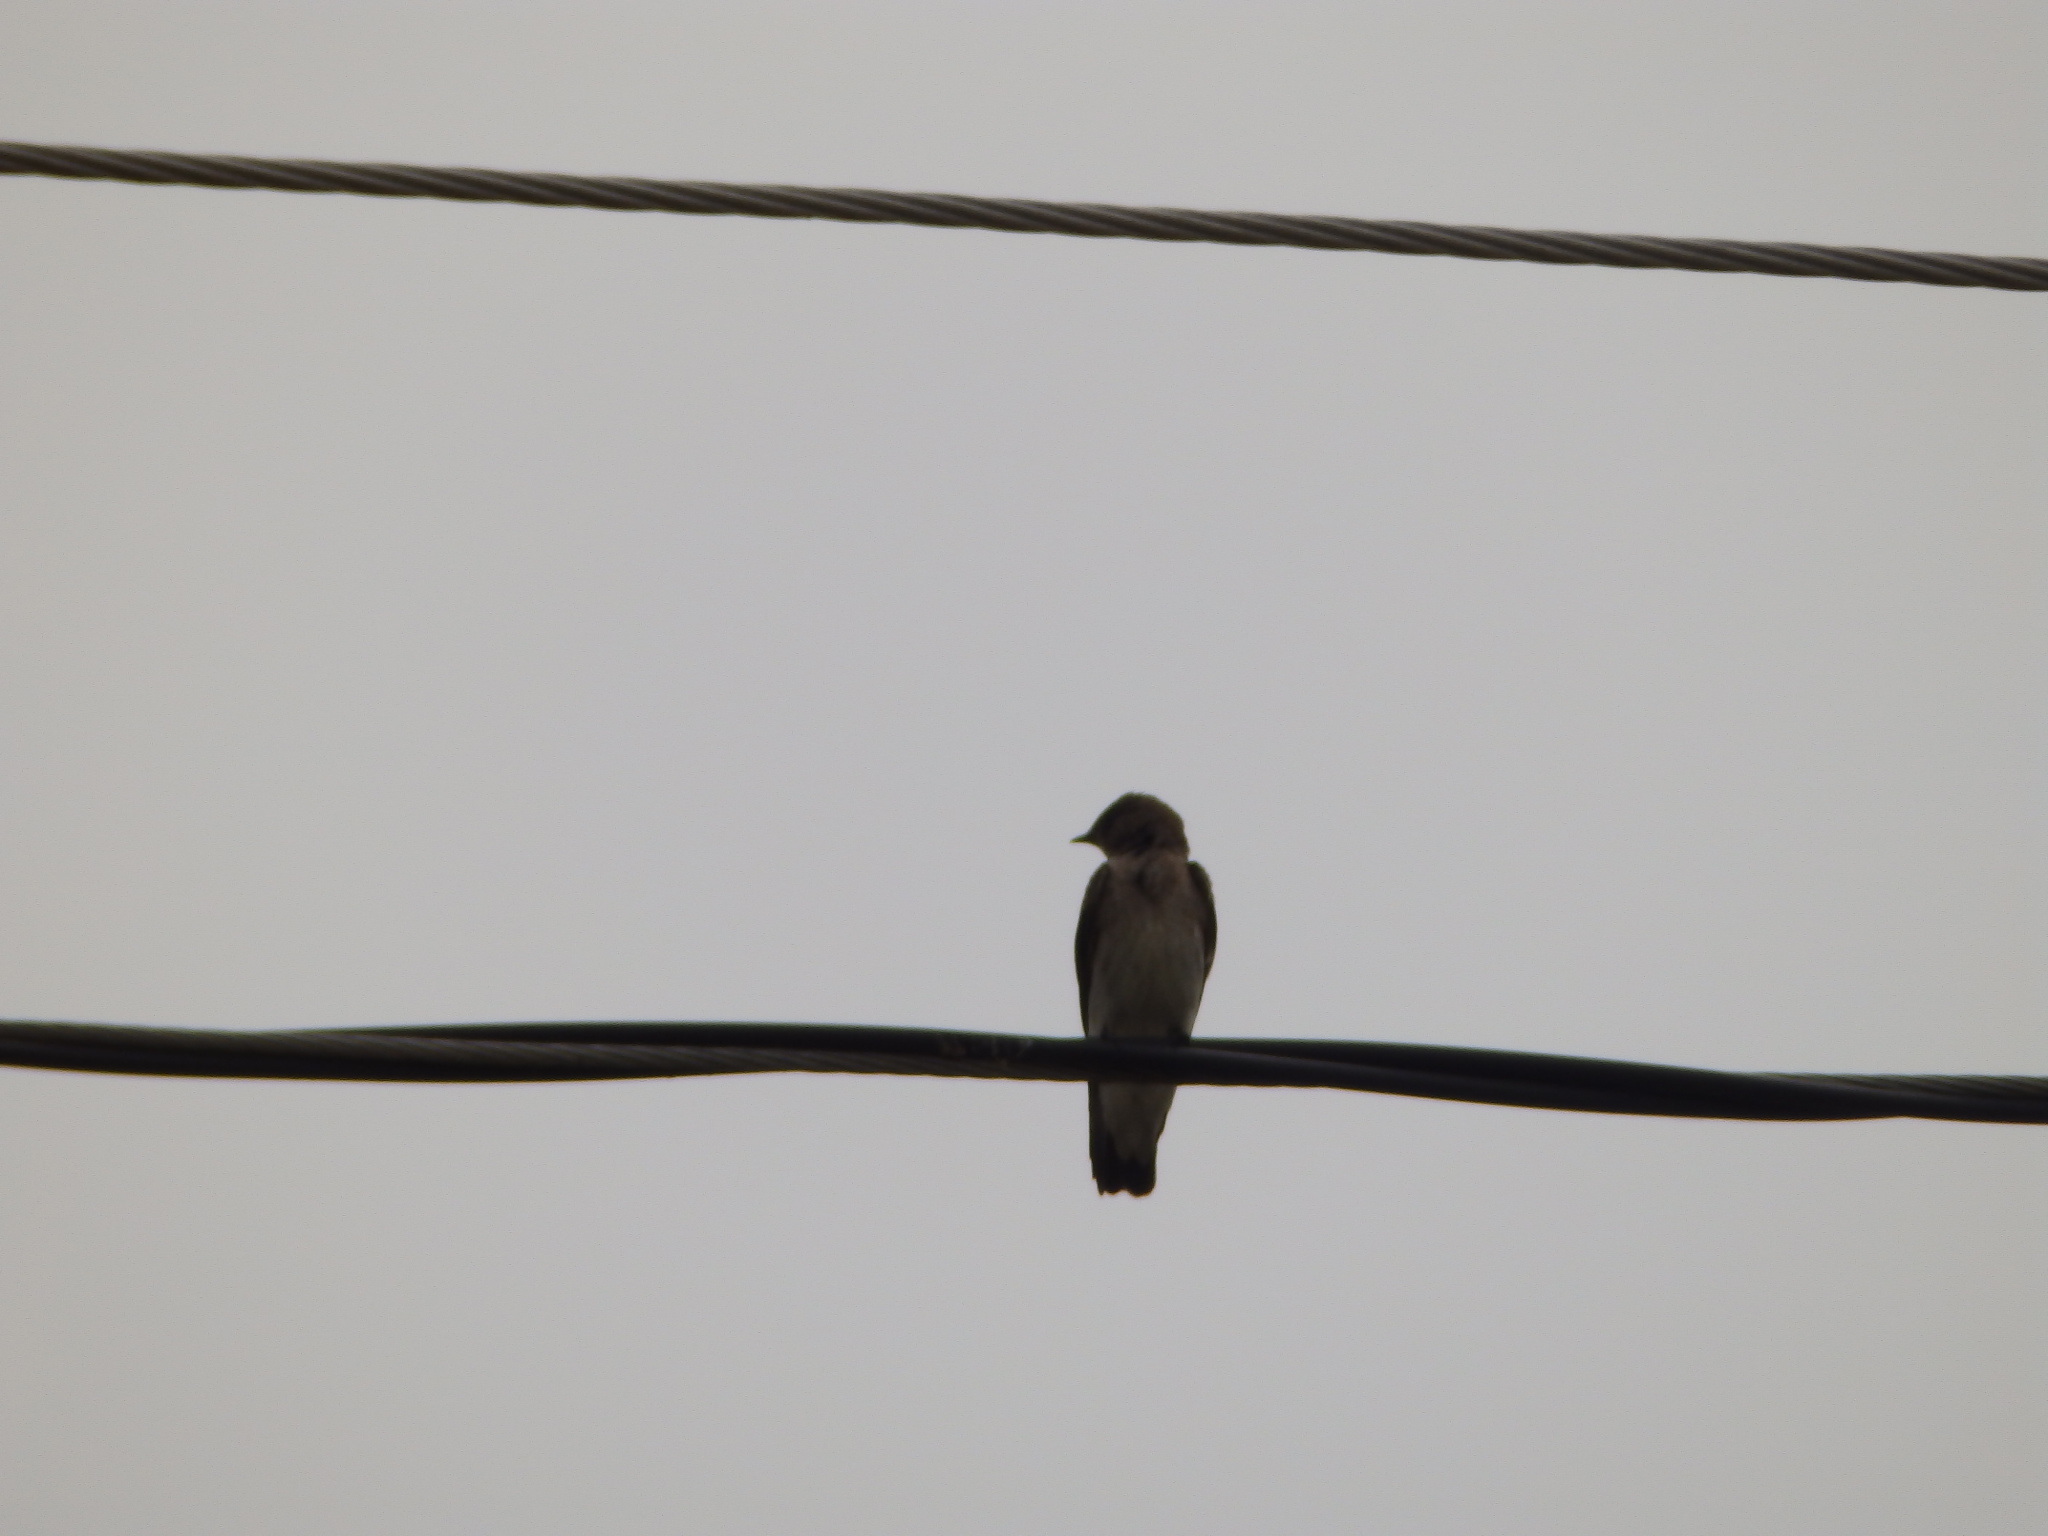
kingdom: Animalia
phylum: Chordata
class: Aves
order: Passeriformes
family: Hirundinidae
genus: Stelgidopteryx
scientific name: Stelgidopteryx serripennis
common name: Northern rough-winged swallow
